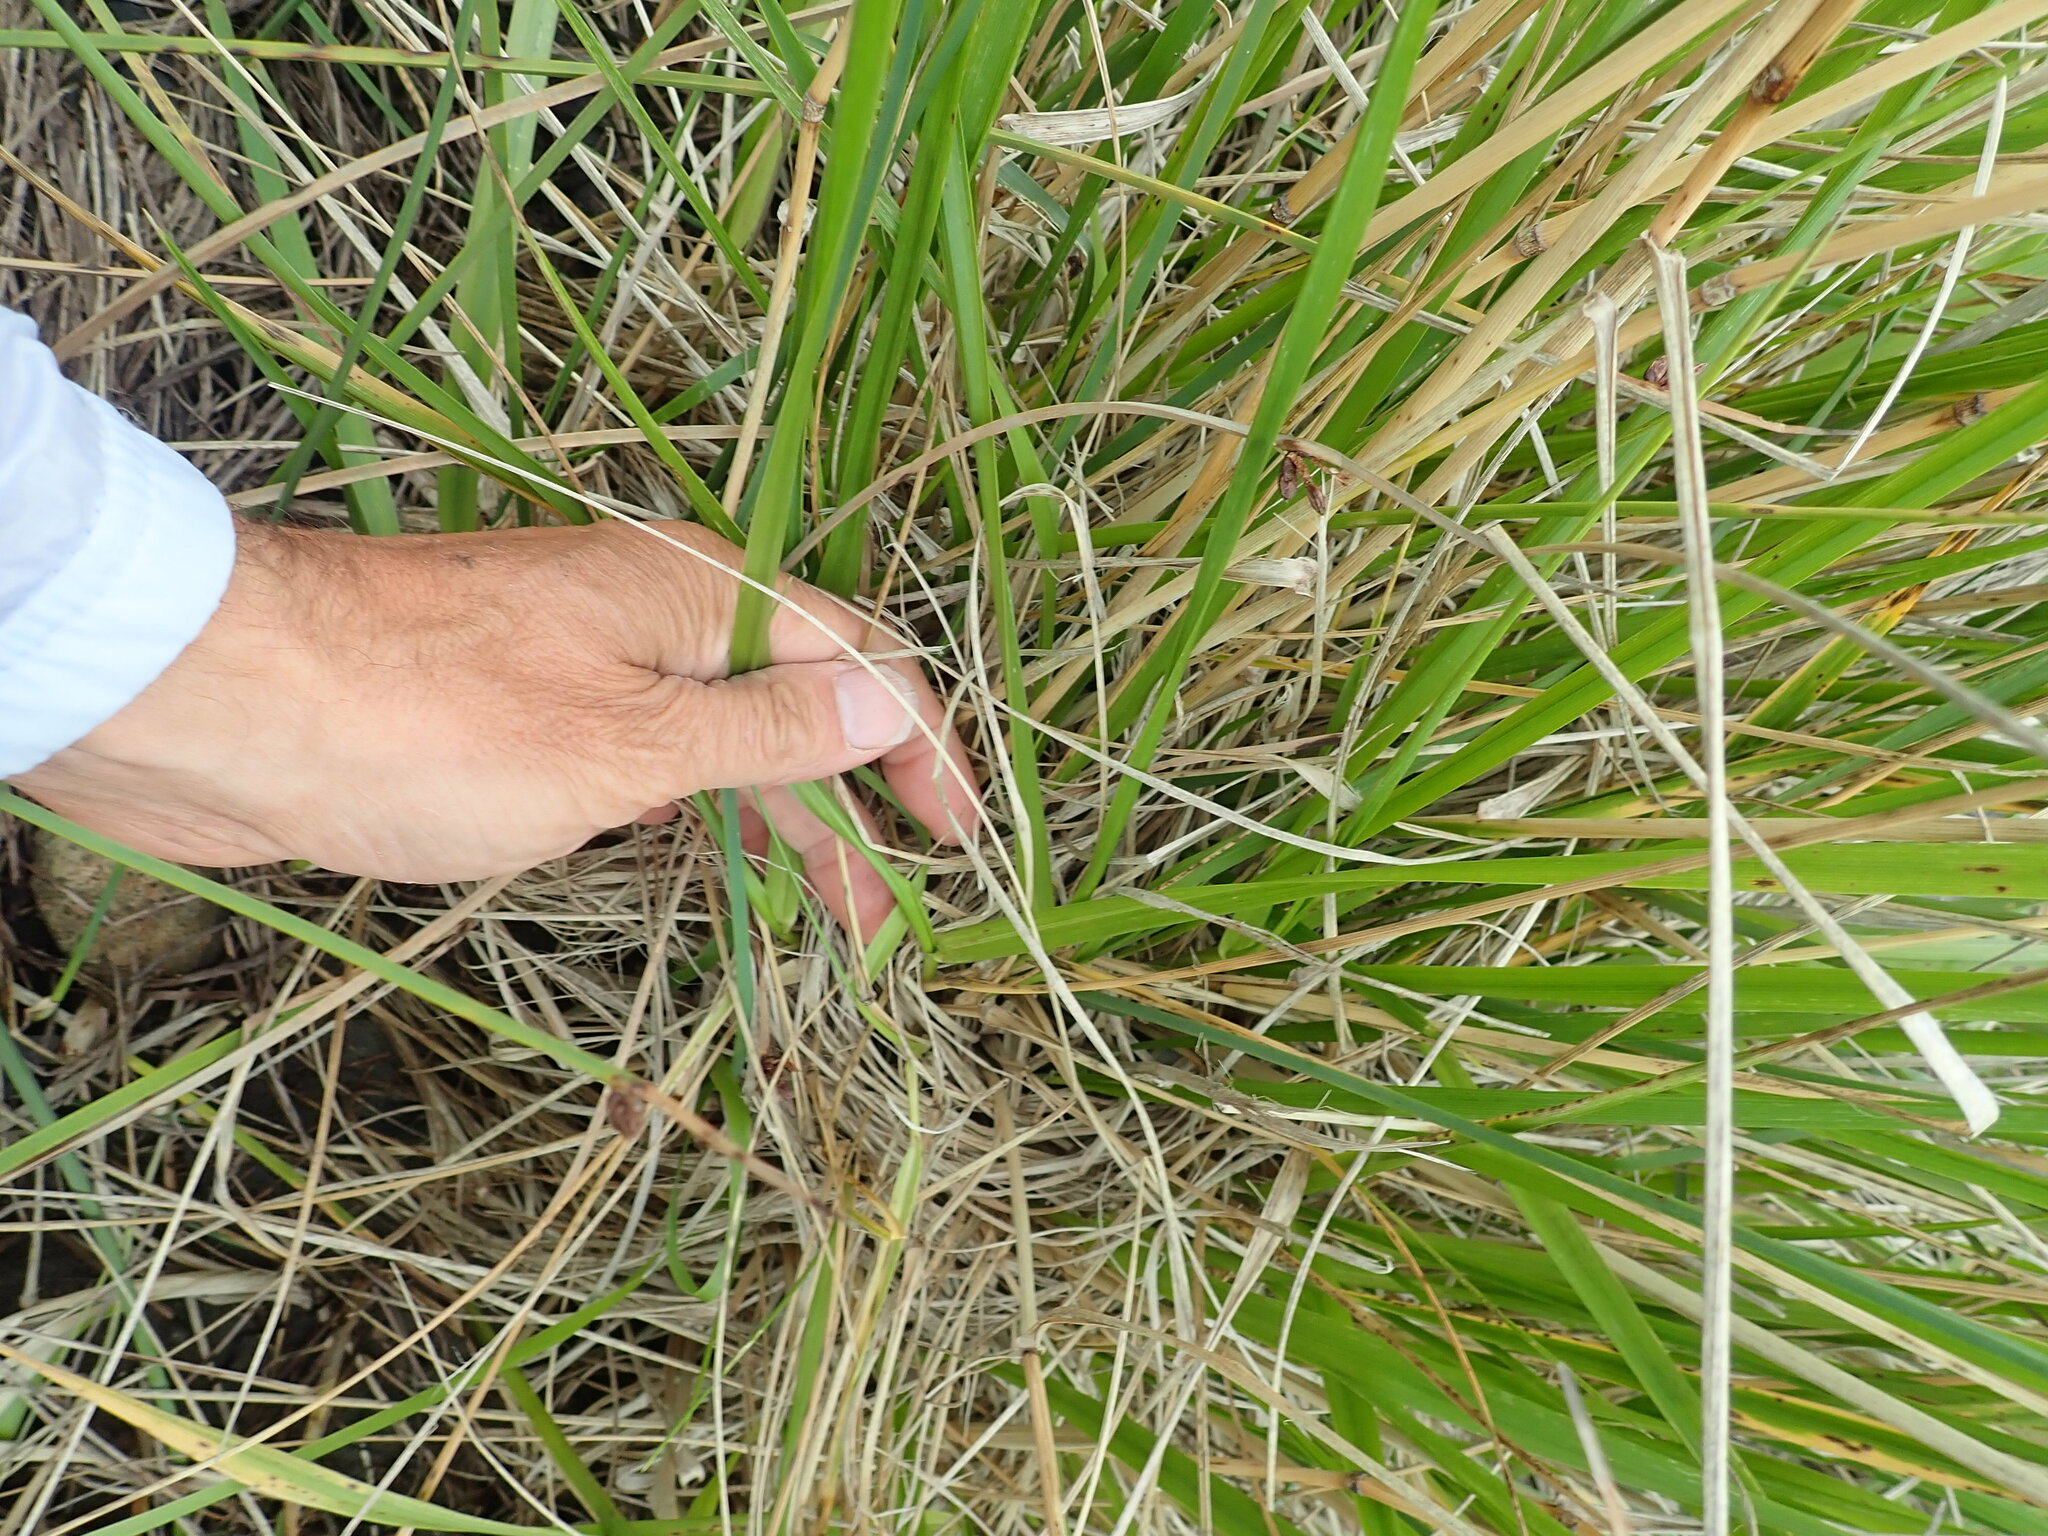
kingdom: Plantae
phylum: Tracheophyta
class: Liliopsida
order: Poales
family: Poaceae
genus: Lolium
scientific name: Lolium arundinaceum
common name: Reed fescue
